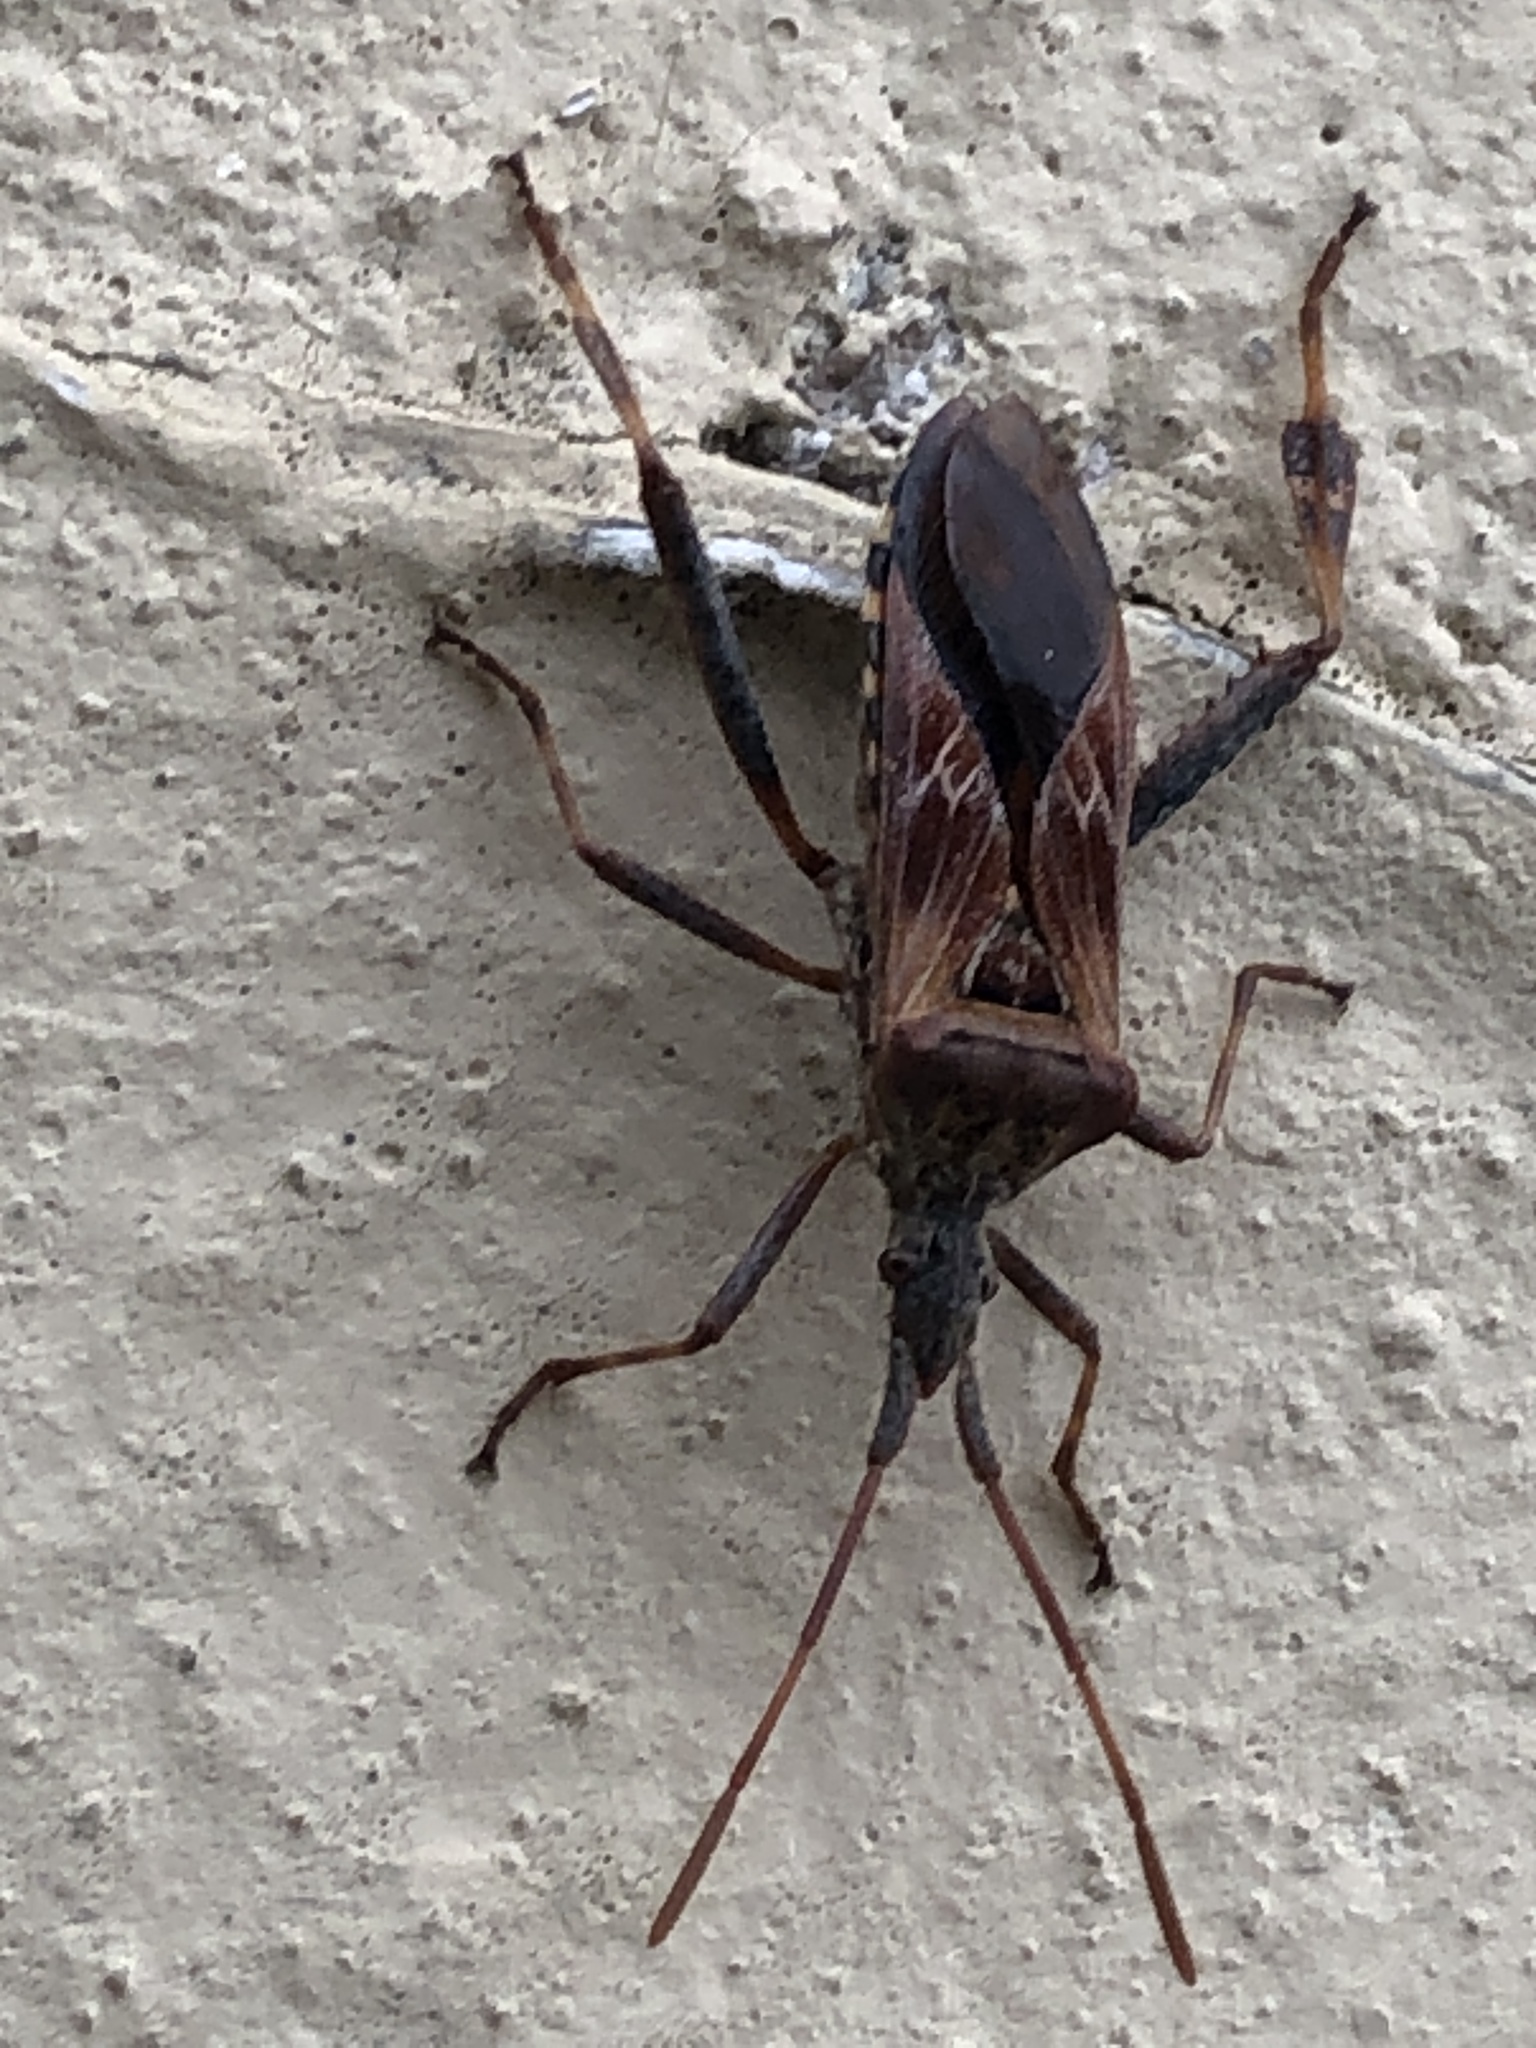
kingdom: Animalia
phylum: Arthropoda
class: Insecta
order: Hemiptera
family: Coreidae
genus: Leptoglossus
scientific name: Leptoglossus occidentalis
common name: Western conifer-seed bug
